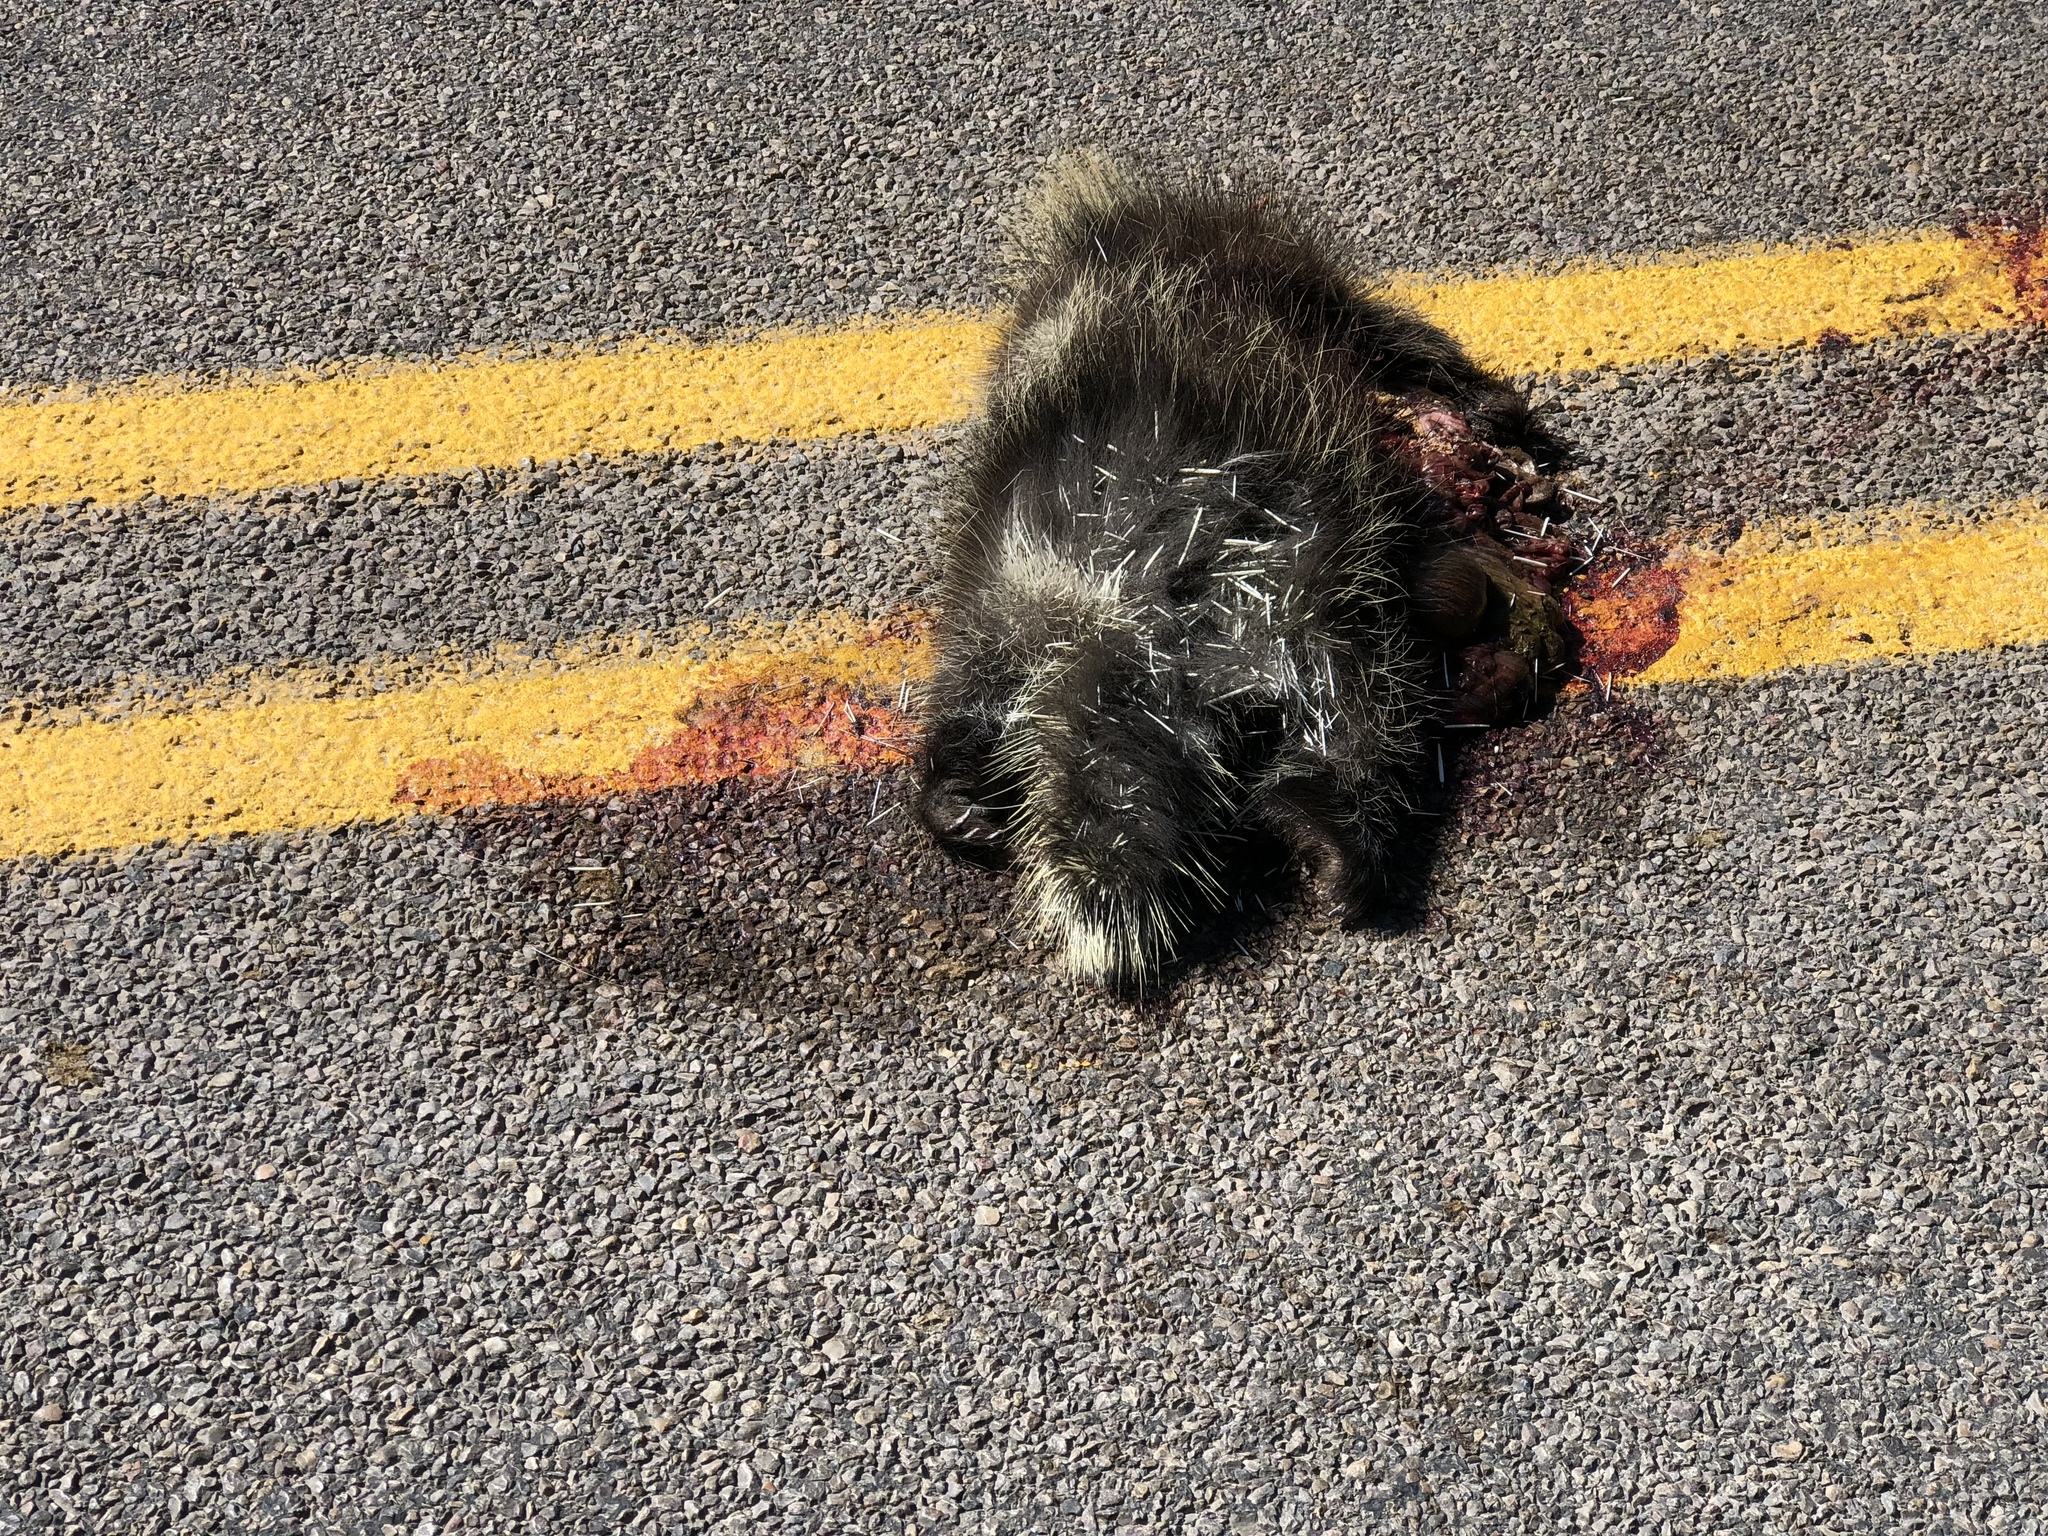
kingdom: Animalia
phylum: Chordata
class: Mammalia
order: Rodentia
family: Erethizontidae
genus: Erethizon
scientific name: Erethizon dorsatus
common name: North american porcupine
